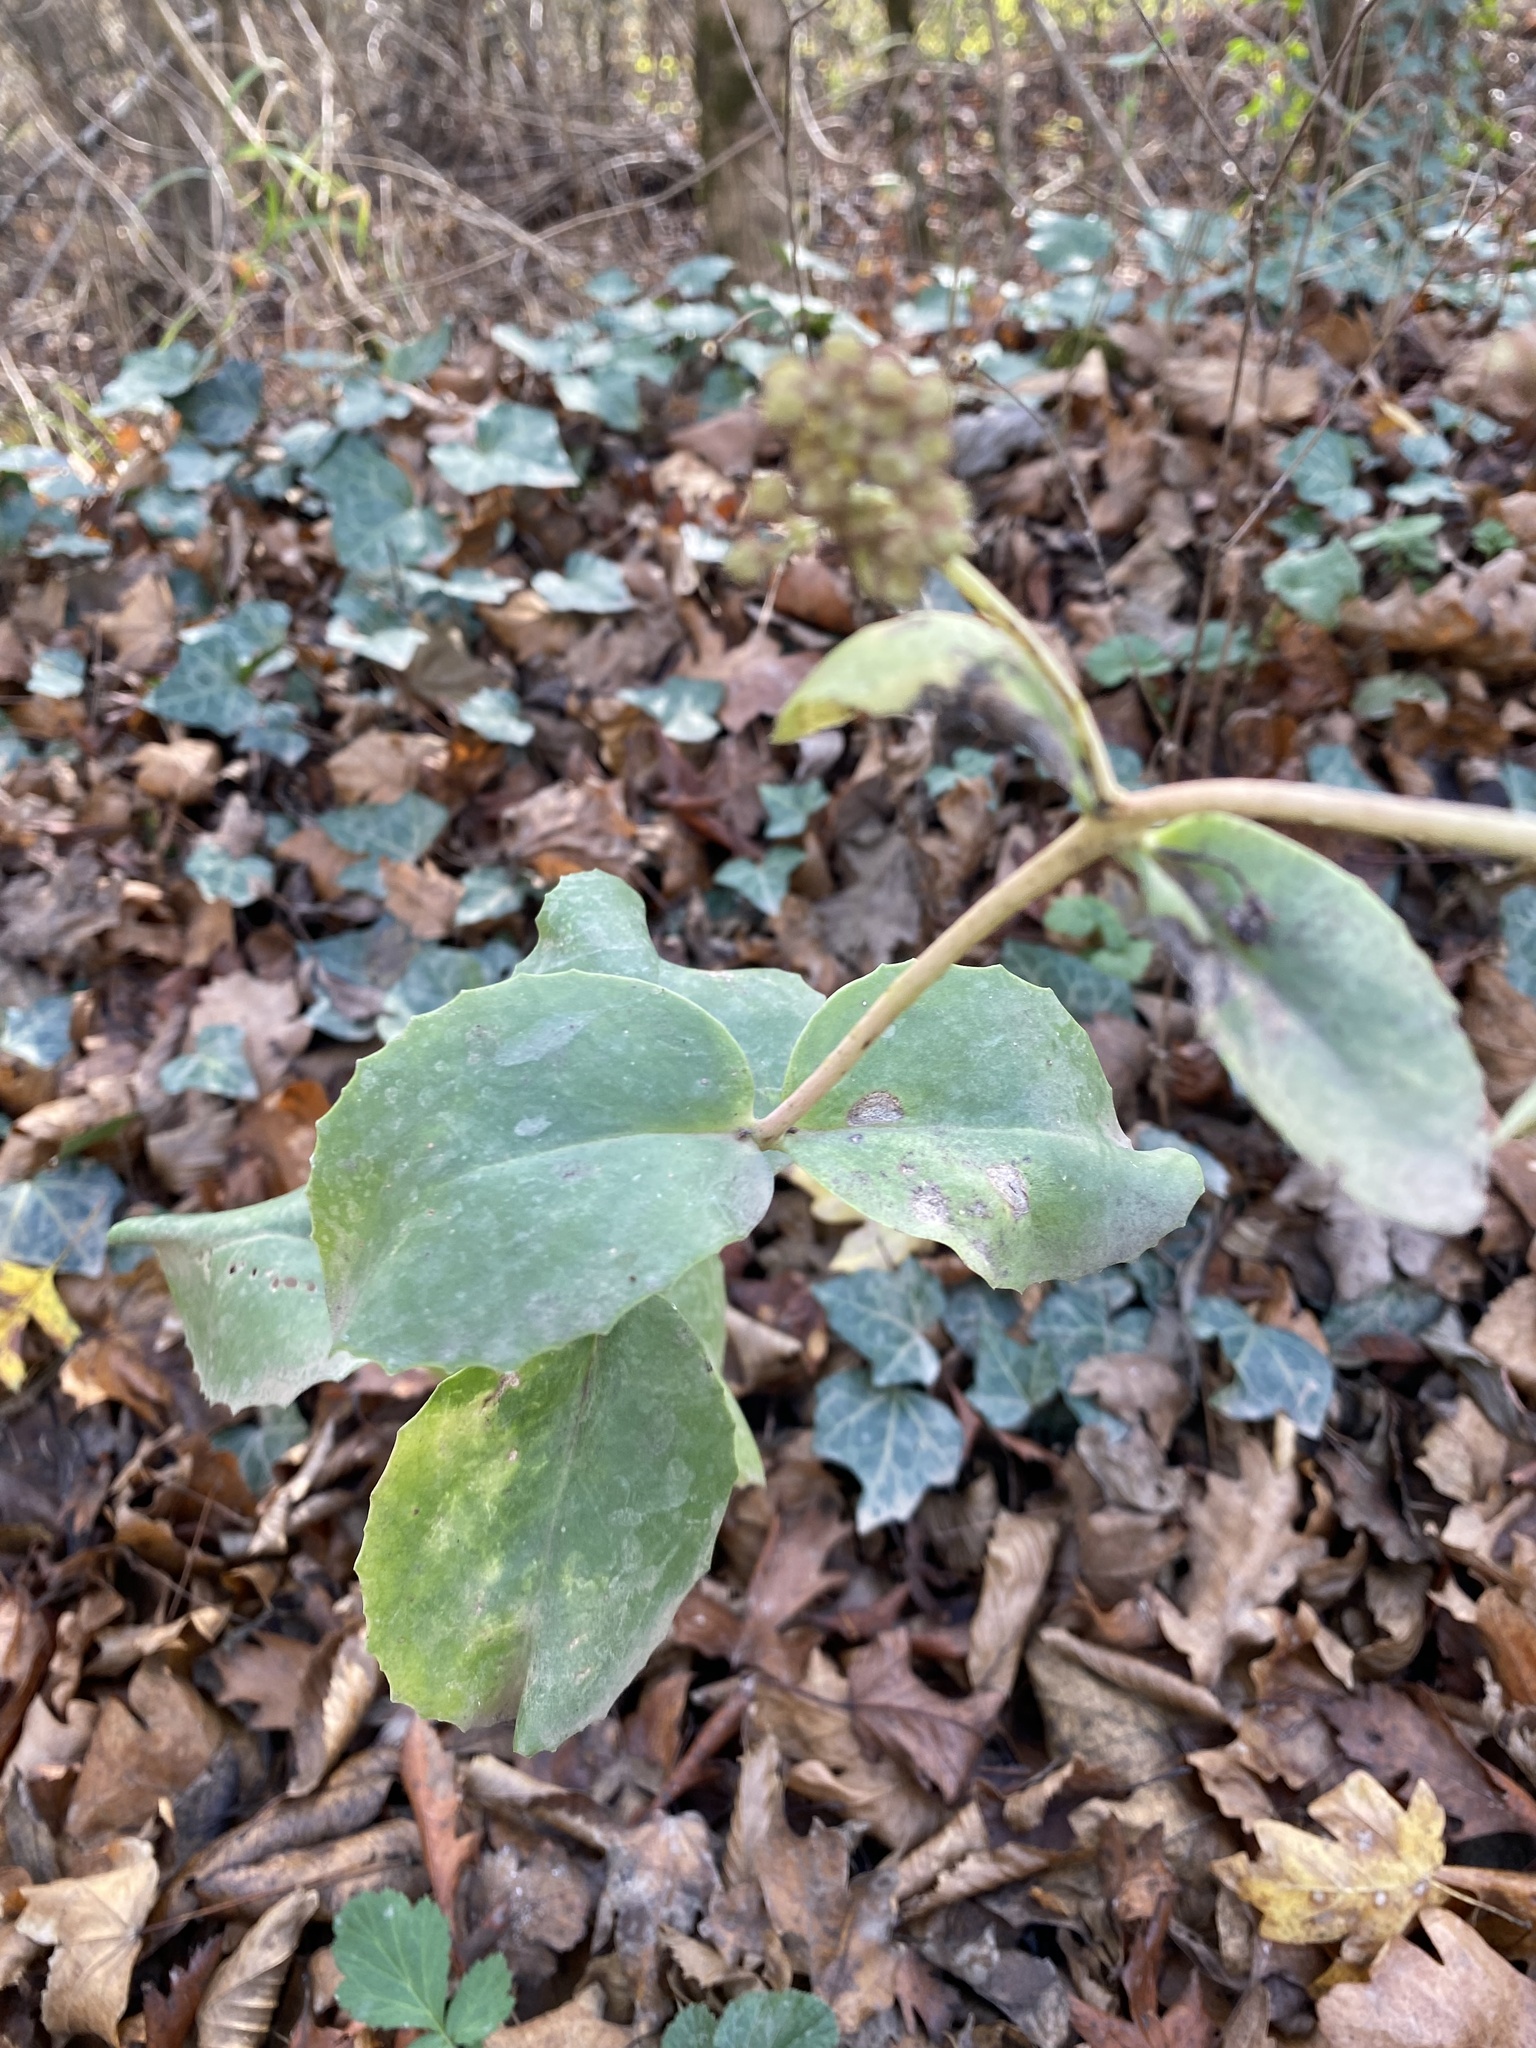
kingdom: Plantae
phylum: Tracheophyta
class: Magnoliopsida
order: Saxifragales
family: Crassulaceae
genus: Hylotelephium
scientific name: Hylotelephium maximum
